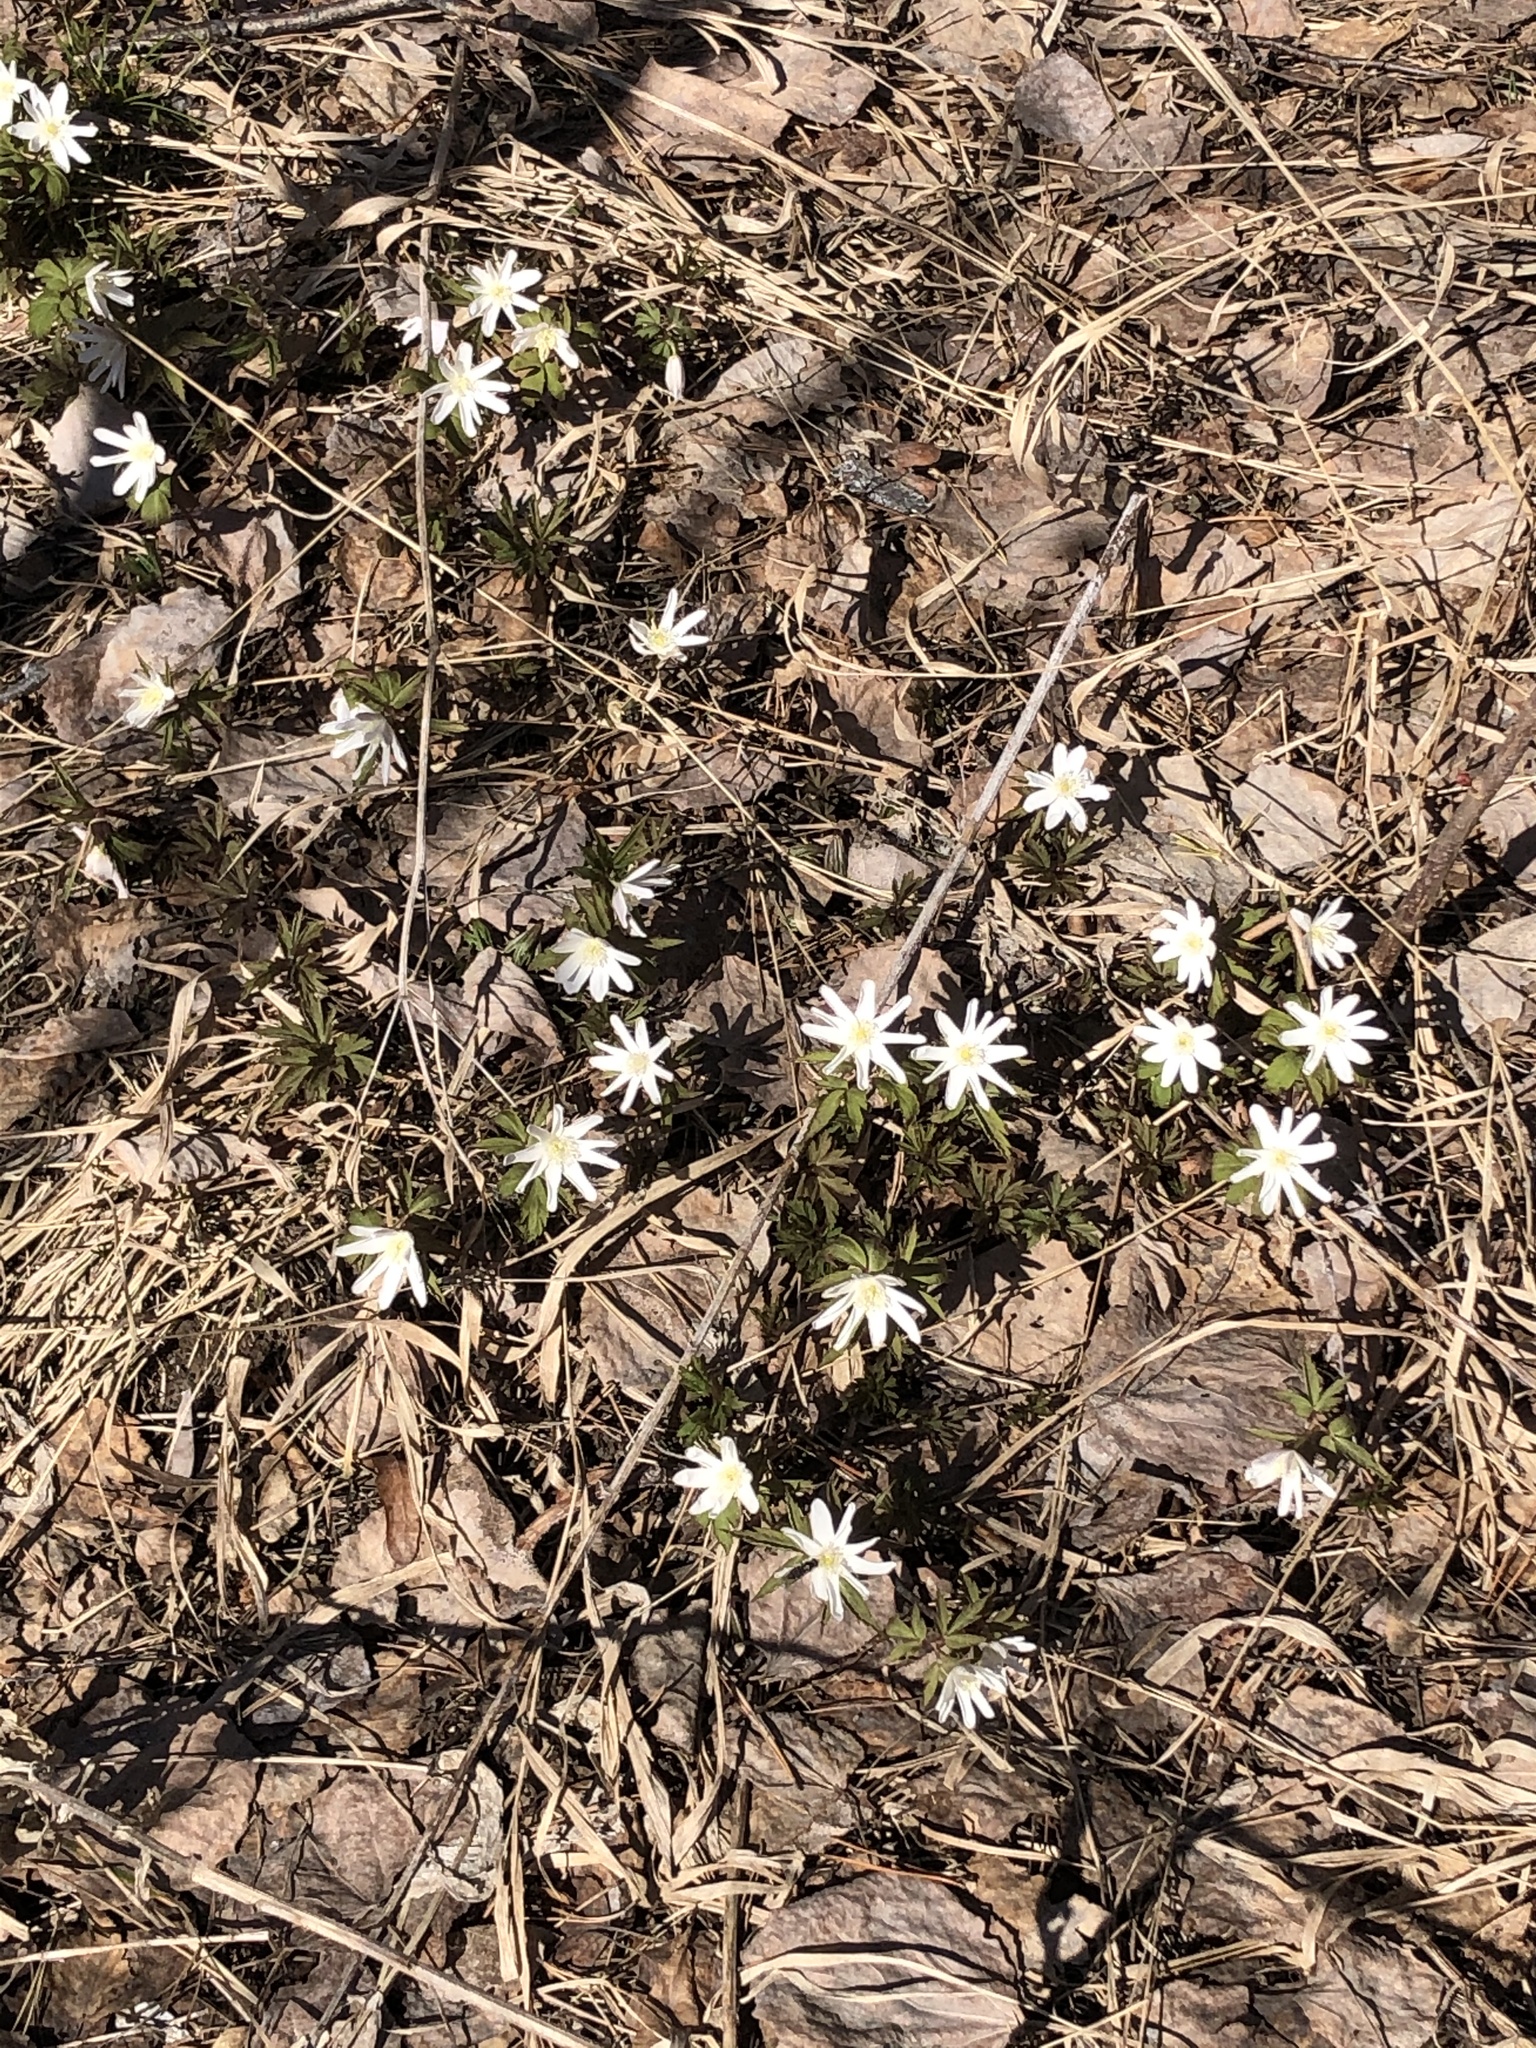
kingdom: Plantae
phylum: Tracheophyta
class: Magnoliopsida
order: Ranunculales
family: Ranunculaceae
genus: Anemone
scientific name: Anemone altaica
